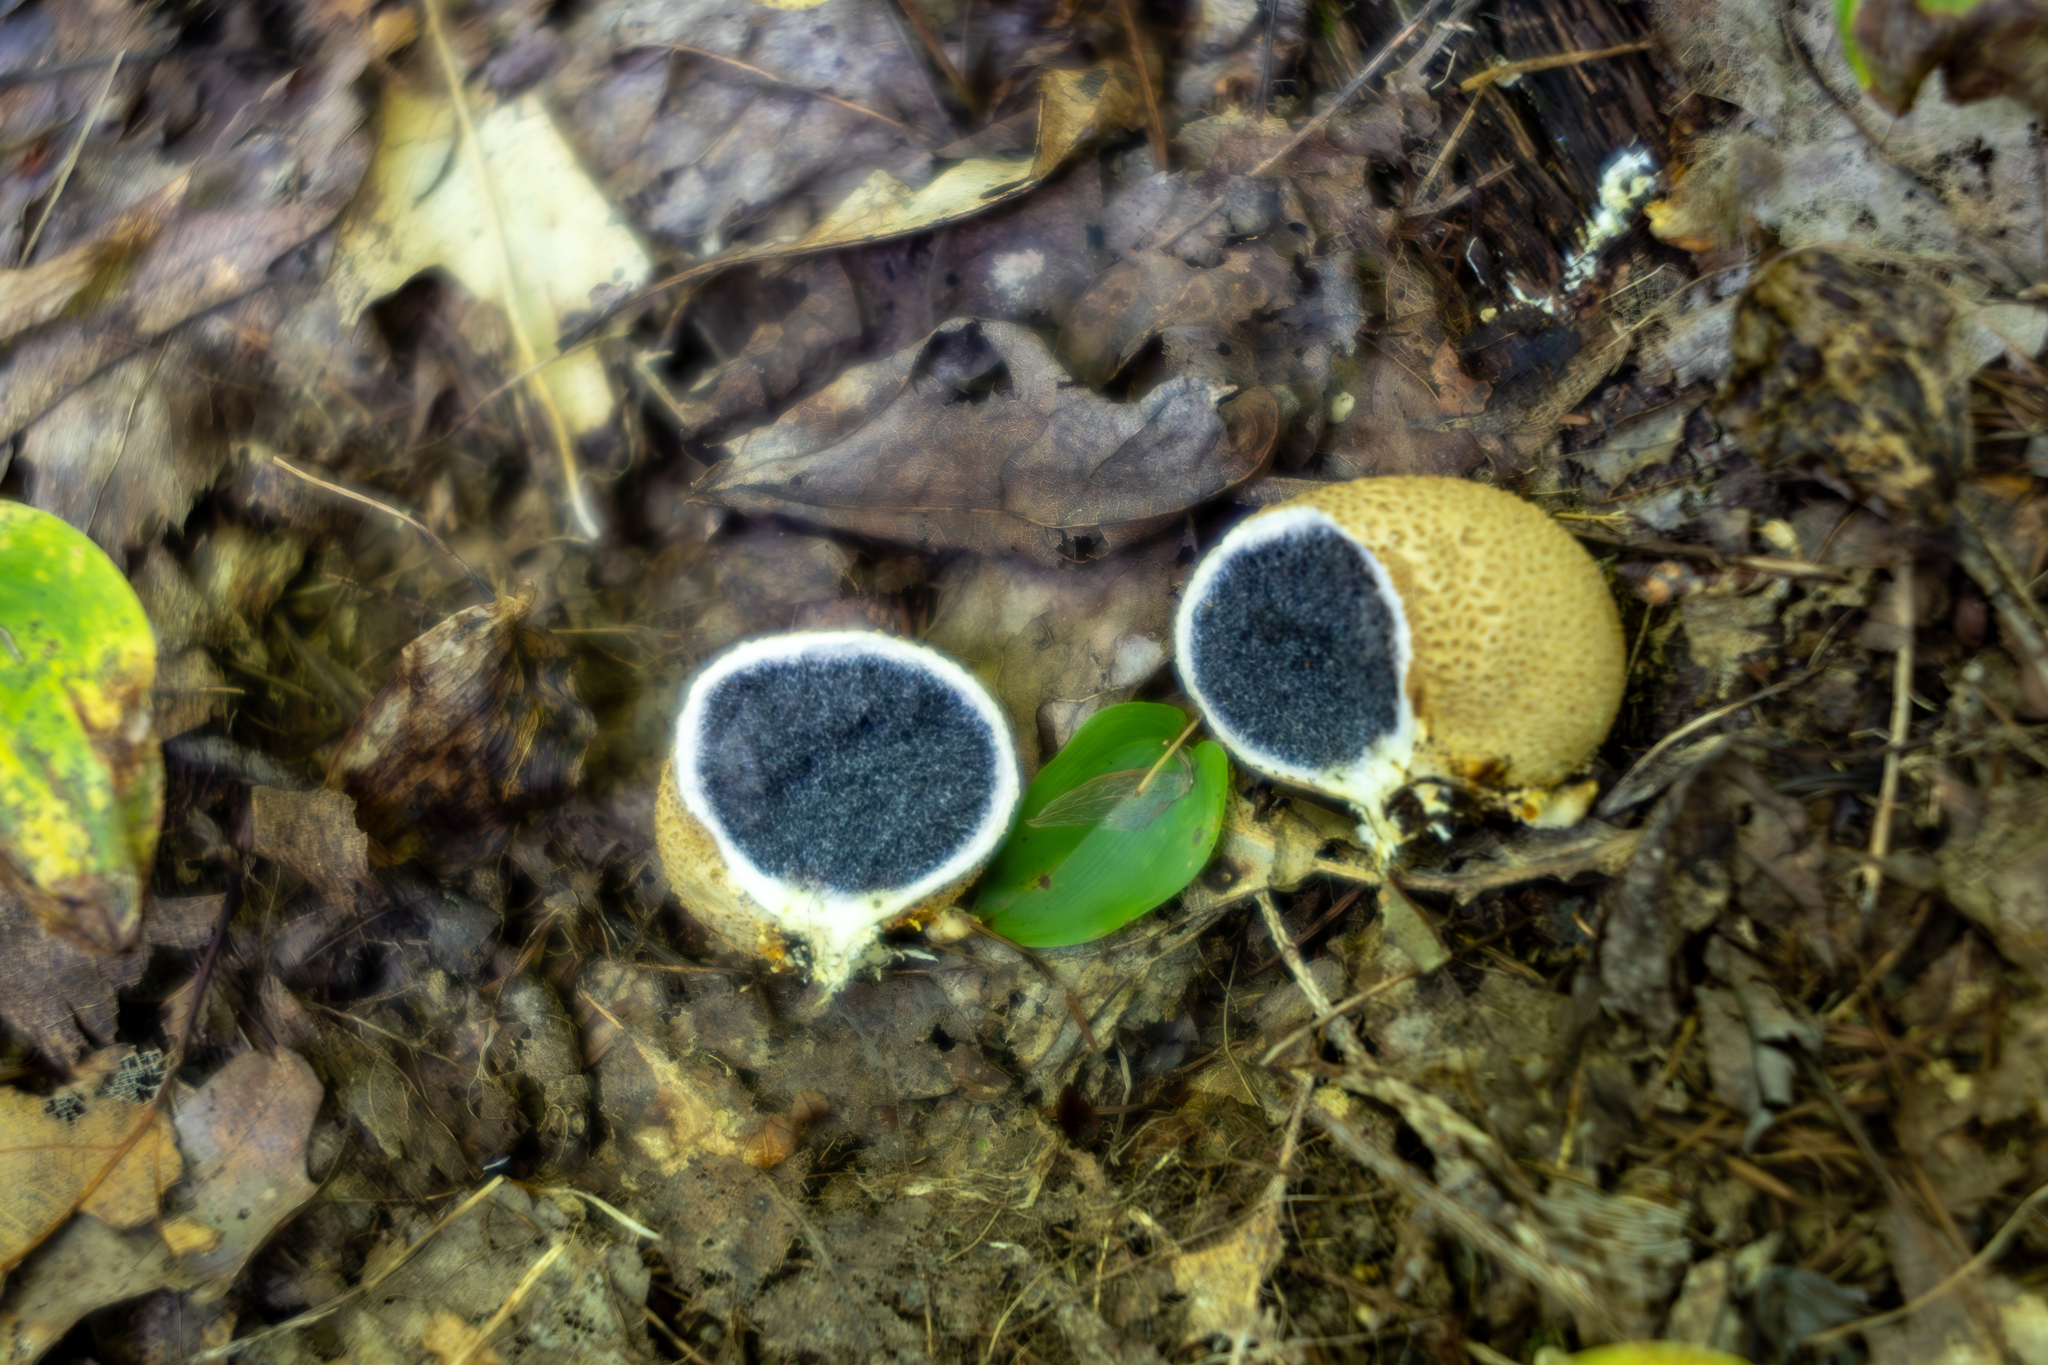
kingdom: Fungi
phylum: Basidiomycota
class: Agaricomycetes
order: Boletales
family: Sclerodermataceae
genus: Scleroderma
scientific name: Scleroderma citrinum
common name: Common earthball
